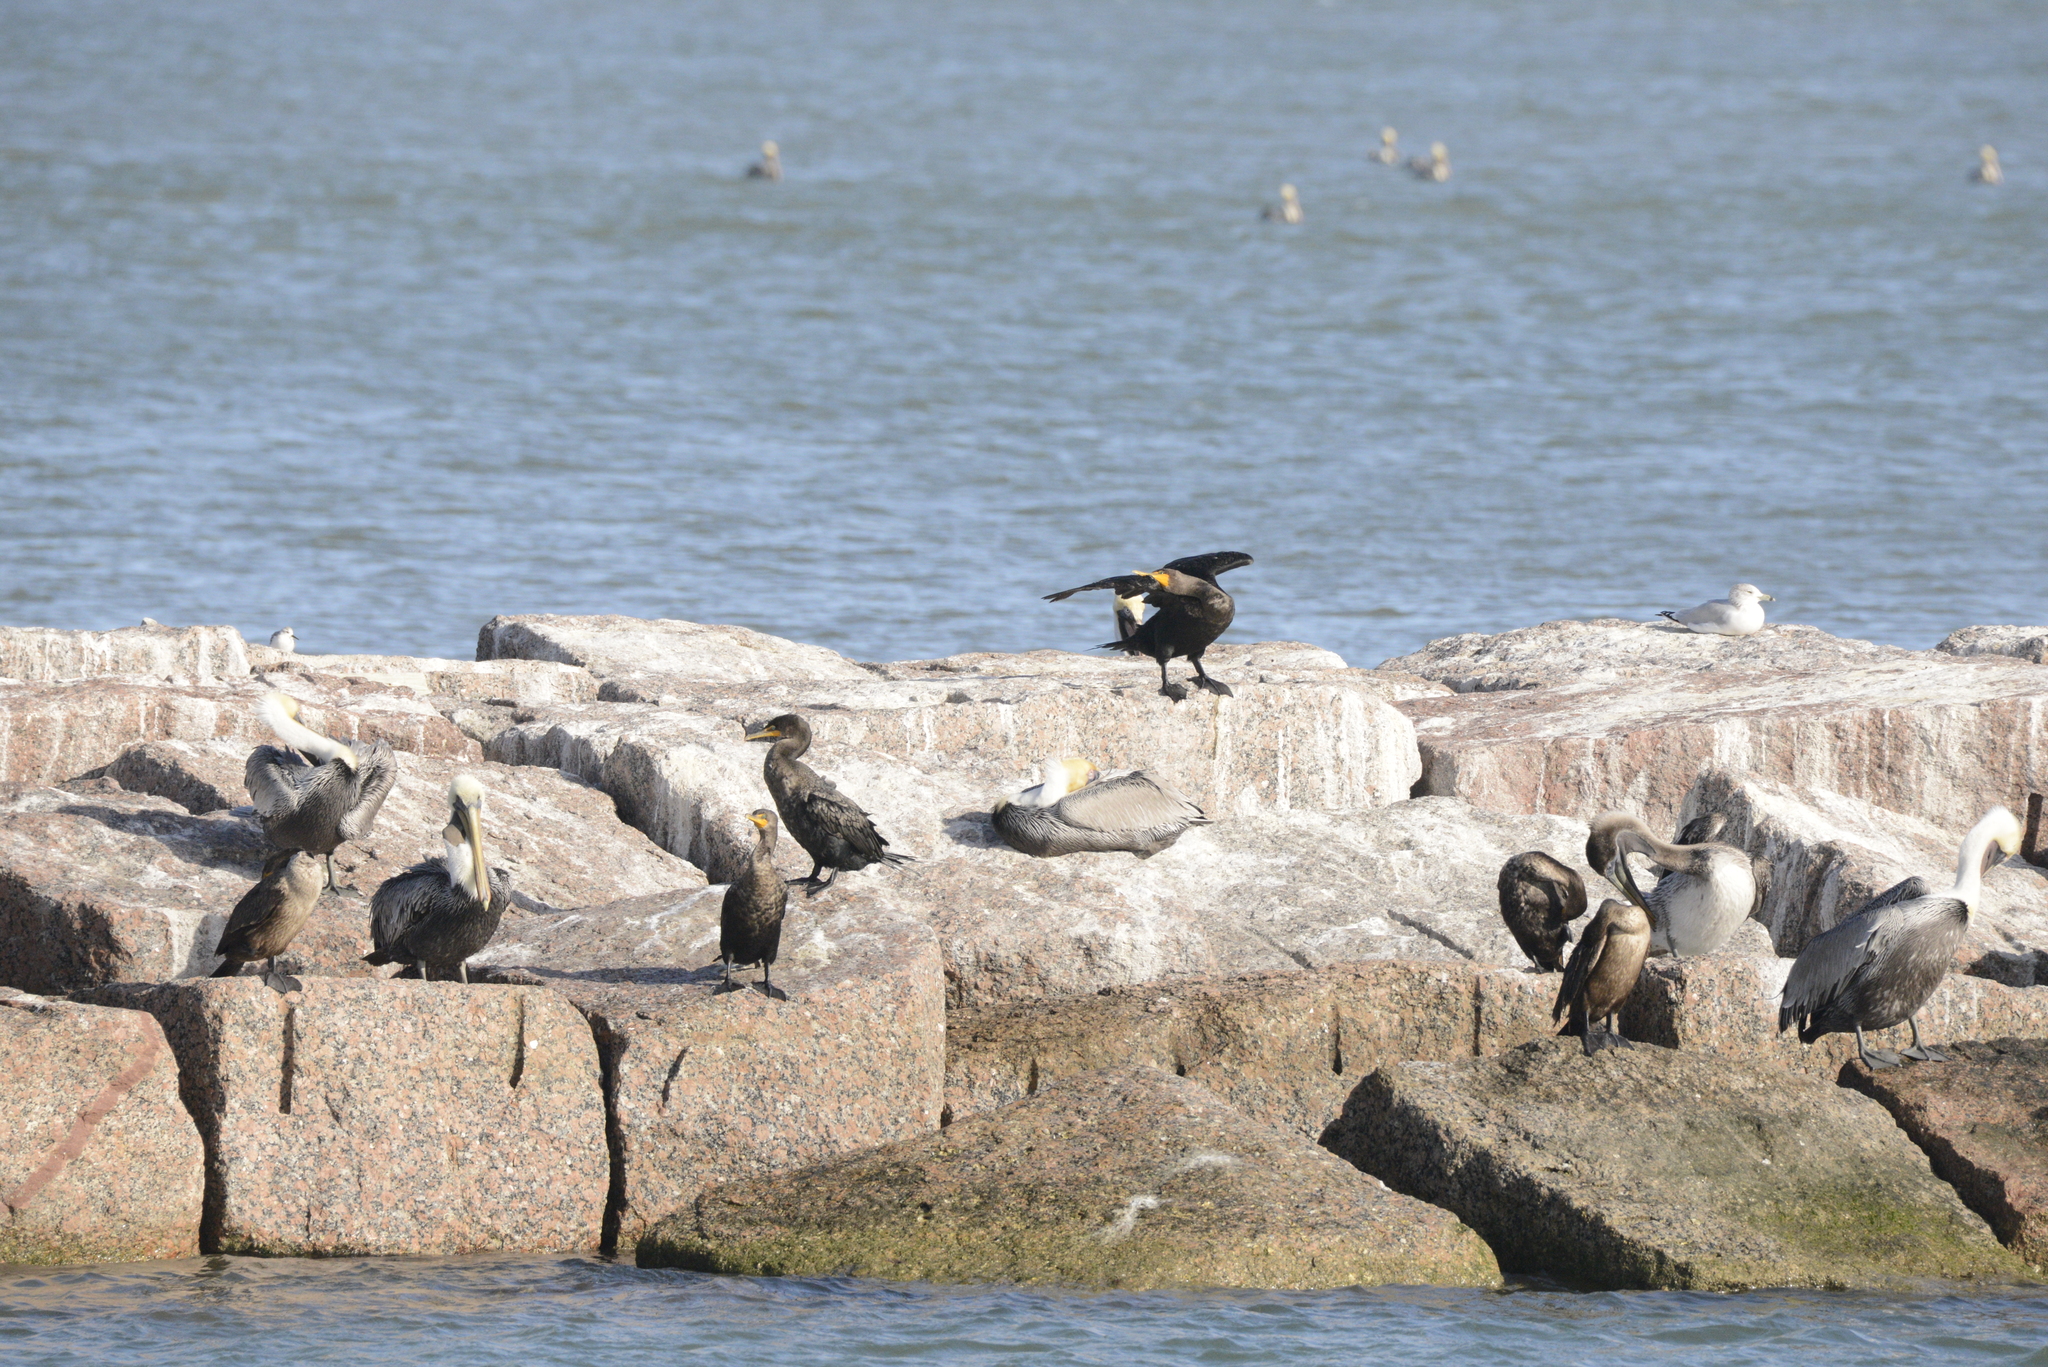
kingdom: Animalia
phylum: Chordata
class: Aves
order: Suliformes
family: Phalacrocoracidae
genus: Phalacrocorax
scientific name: Phalacrocorax auritus
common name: Double-crested cormorant
